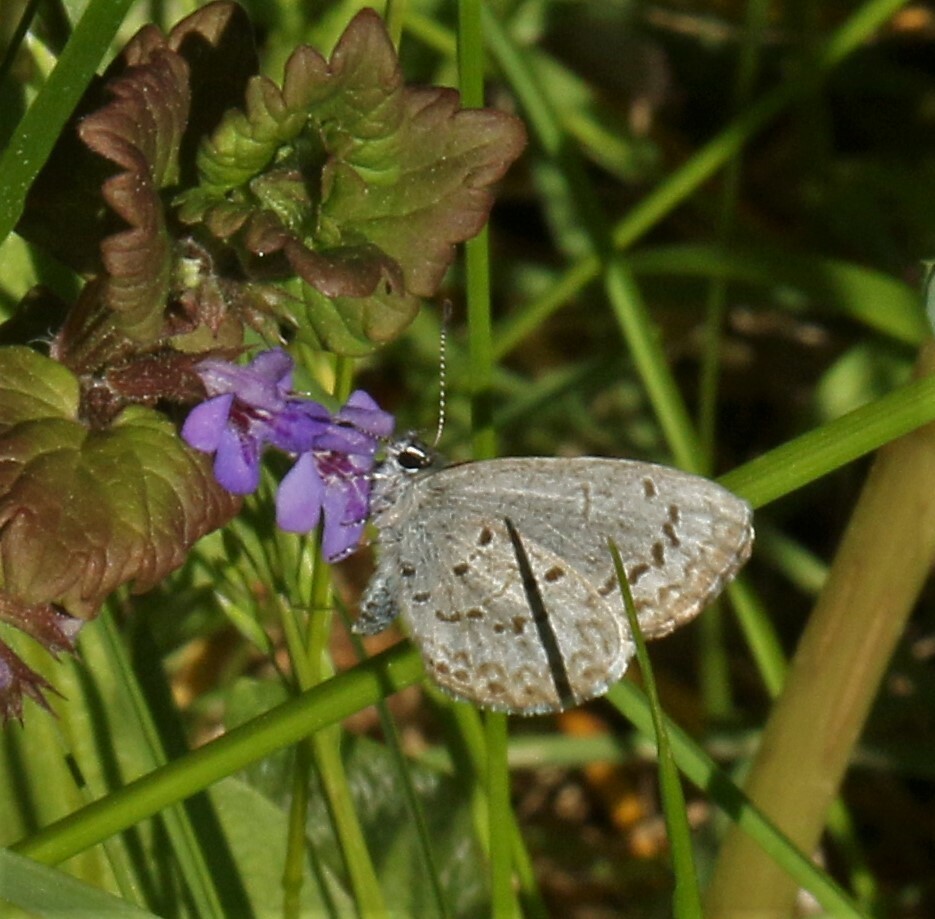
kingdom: Animalia
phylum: Arthropoda
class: Insecta
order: Lepidoptera
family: Lycaenidae
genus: Celastrina
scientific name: Celastrina lucia
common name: Lucia azure
